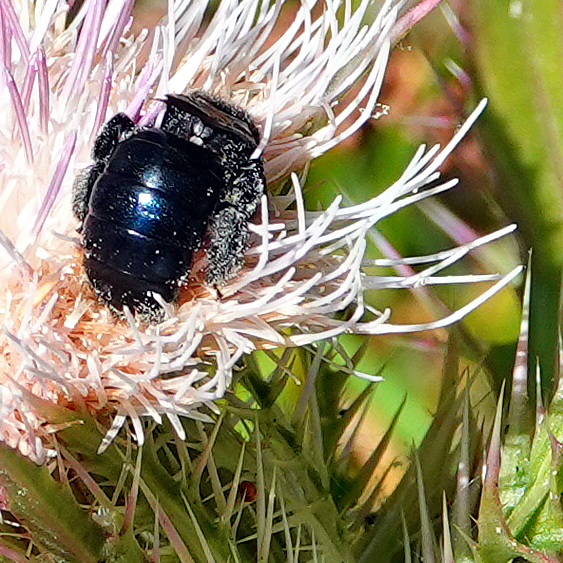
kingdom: Animalia
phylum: Arthropoda
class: Insecta
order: Hymenoptera
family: Apidae
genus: Xylocopa
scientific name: Xylocopa micans
